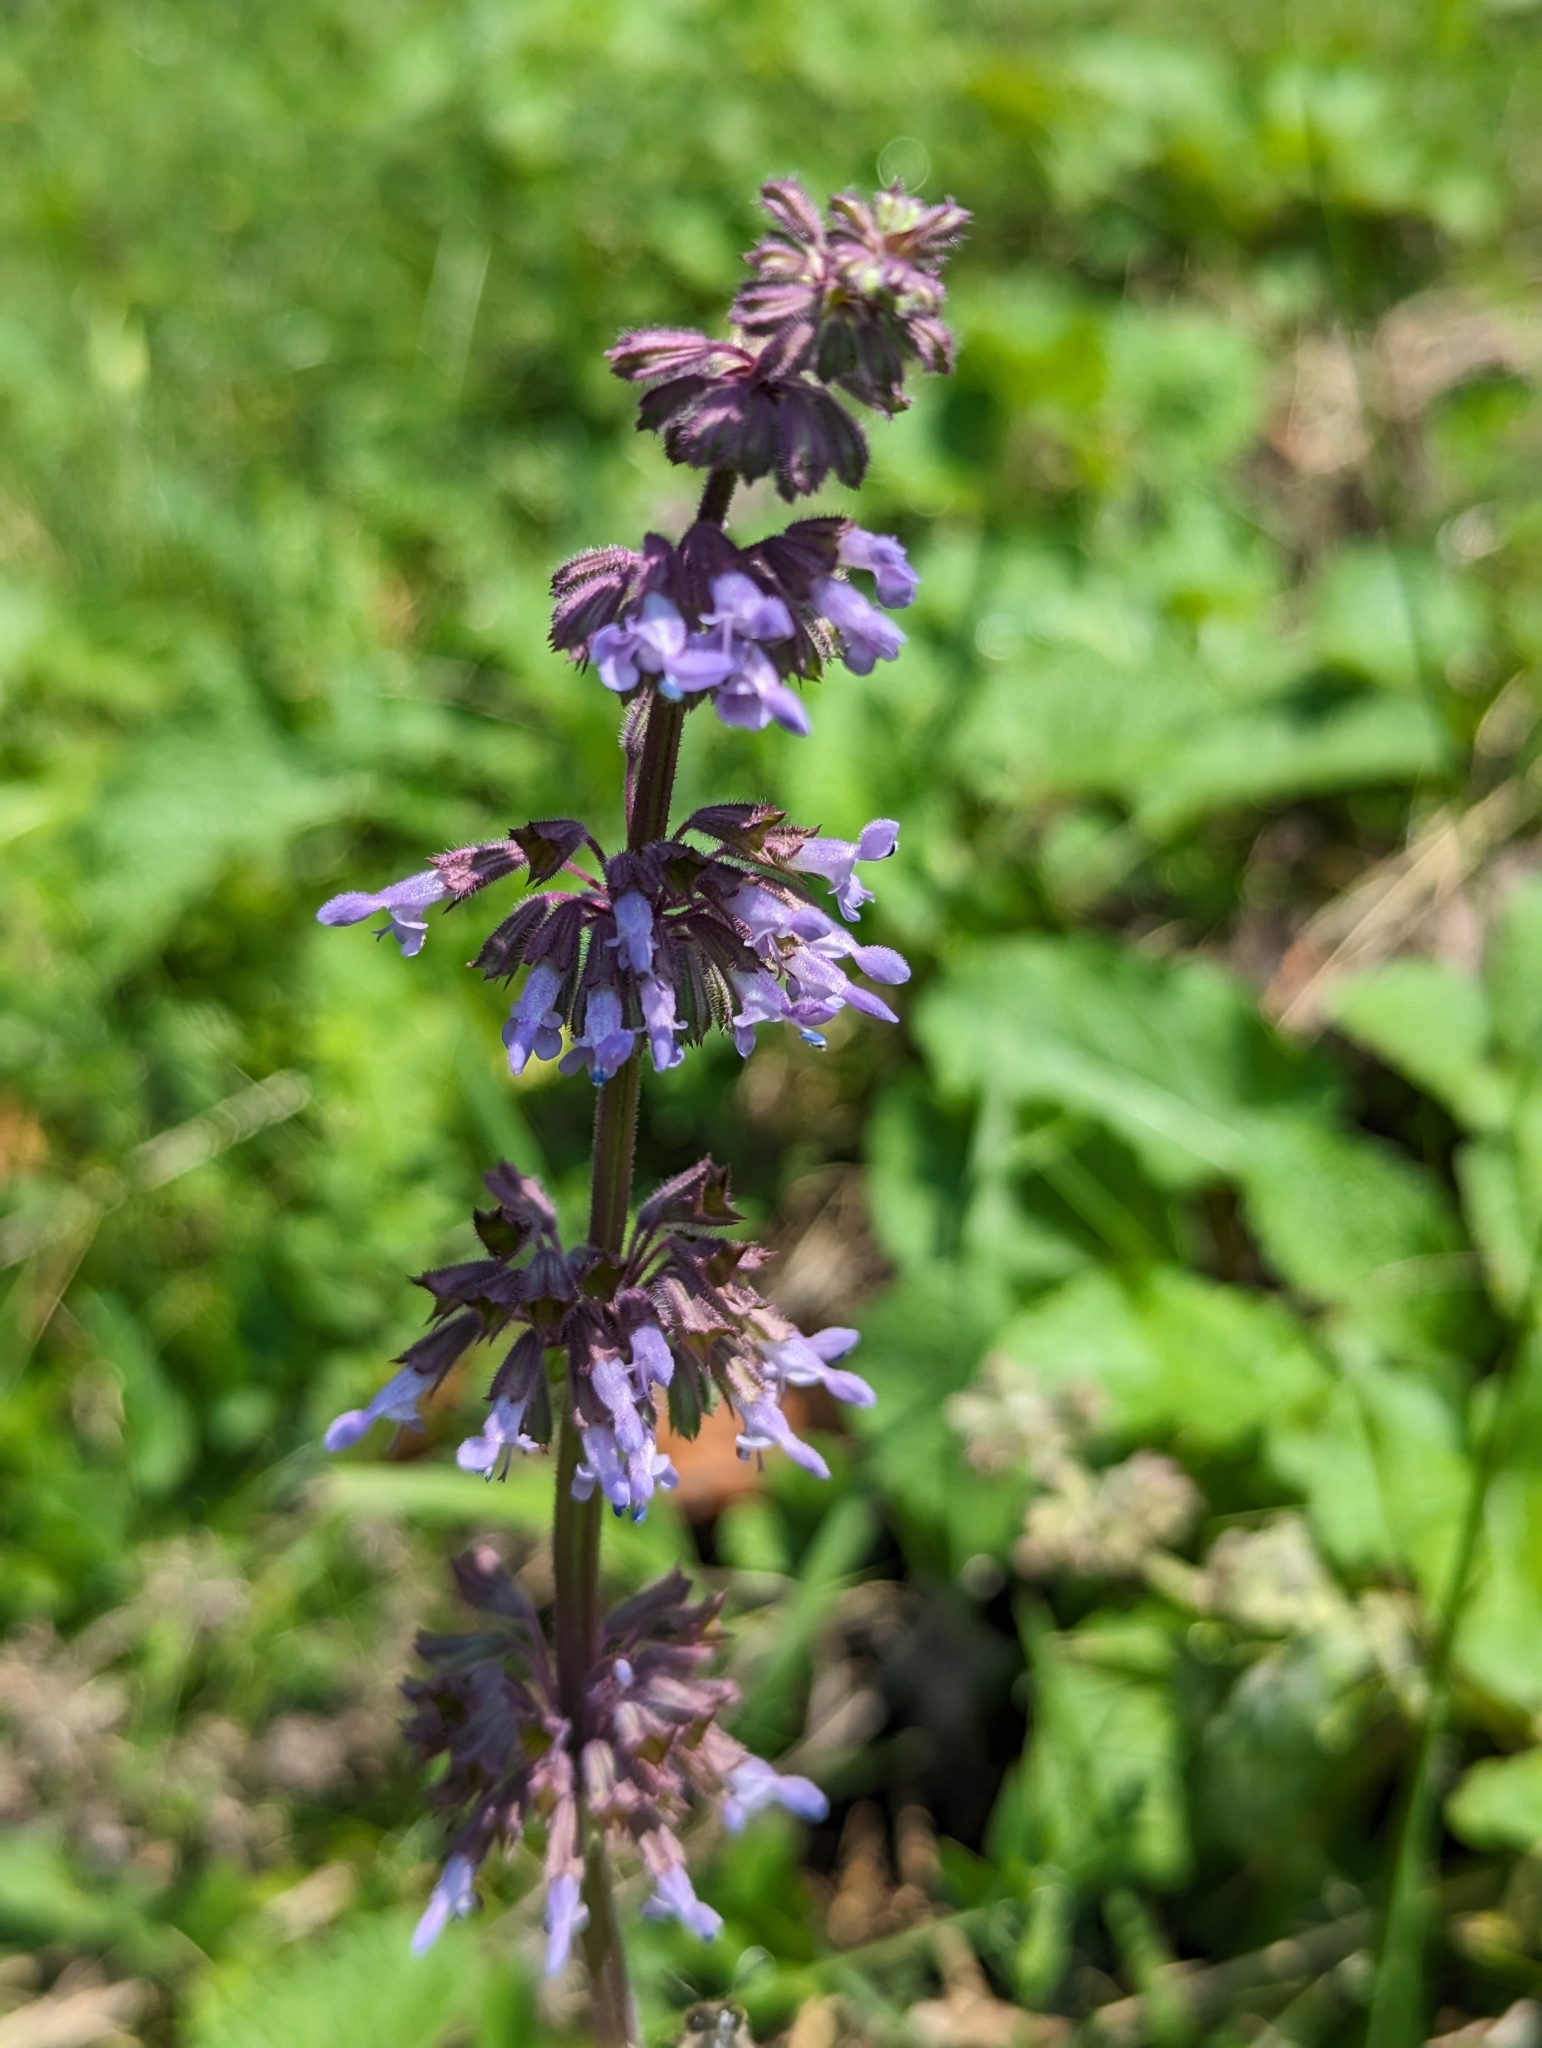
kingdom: Plantae
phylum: Tracheophyta
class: Magnoliopsida
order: Lamiales
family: Lamiaceae
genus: Salvia
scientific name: Salvia verticillata
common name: Whorled clary
